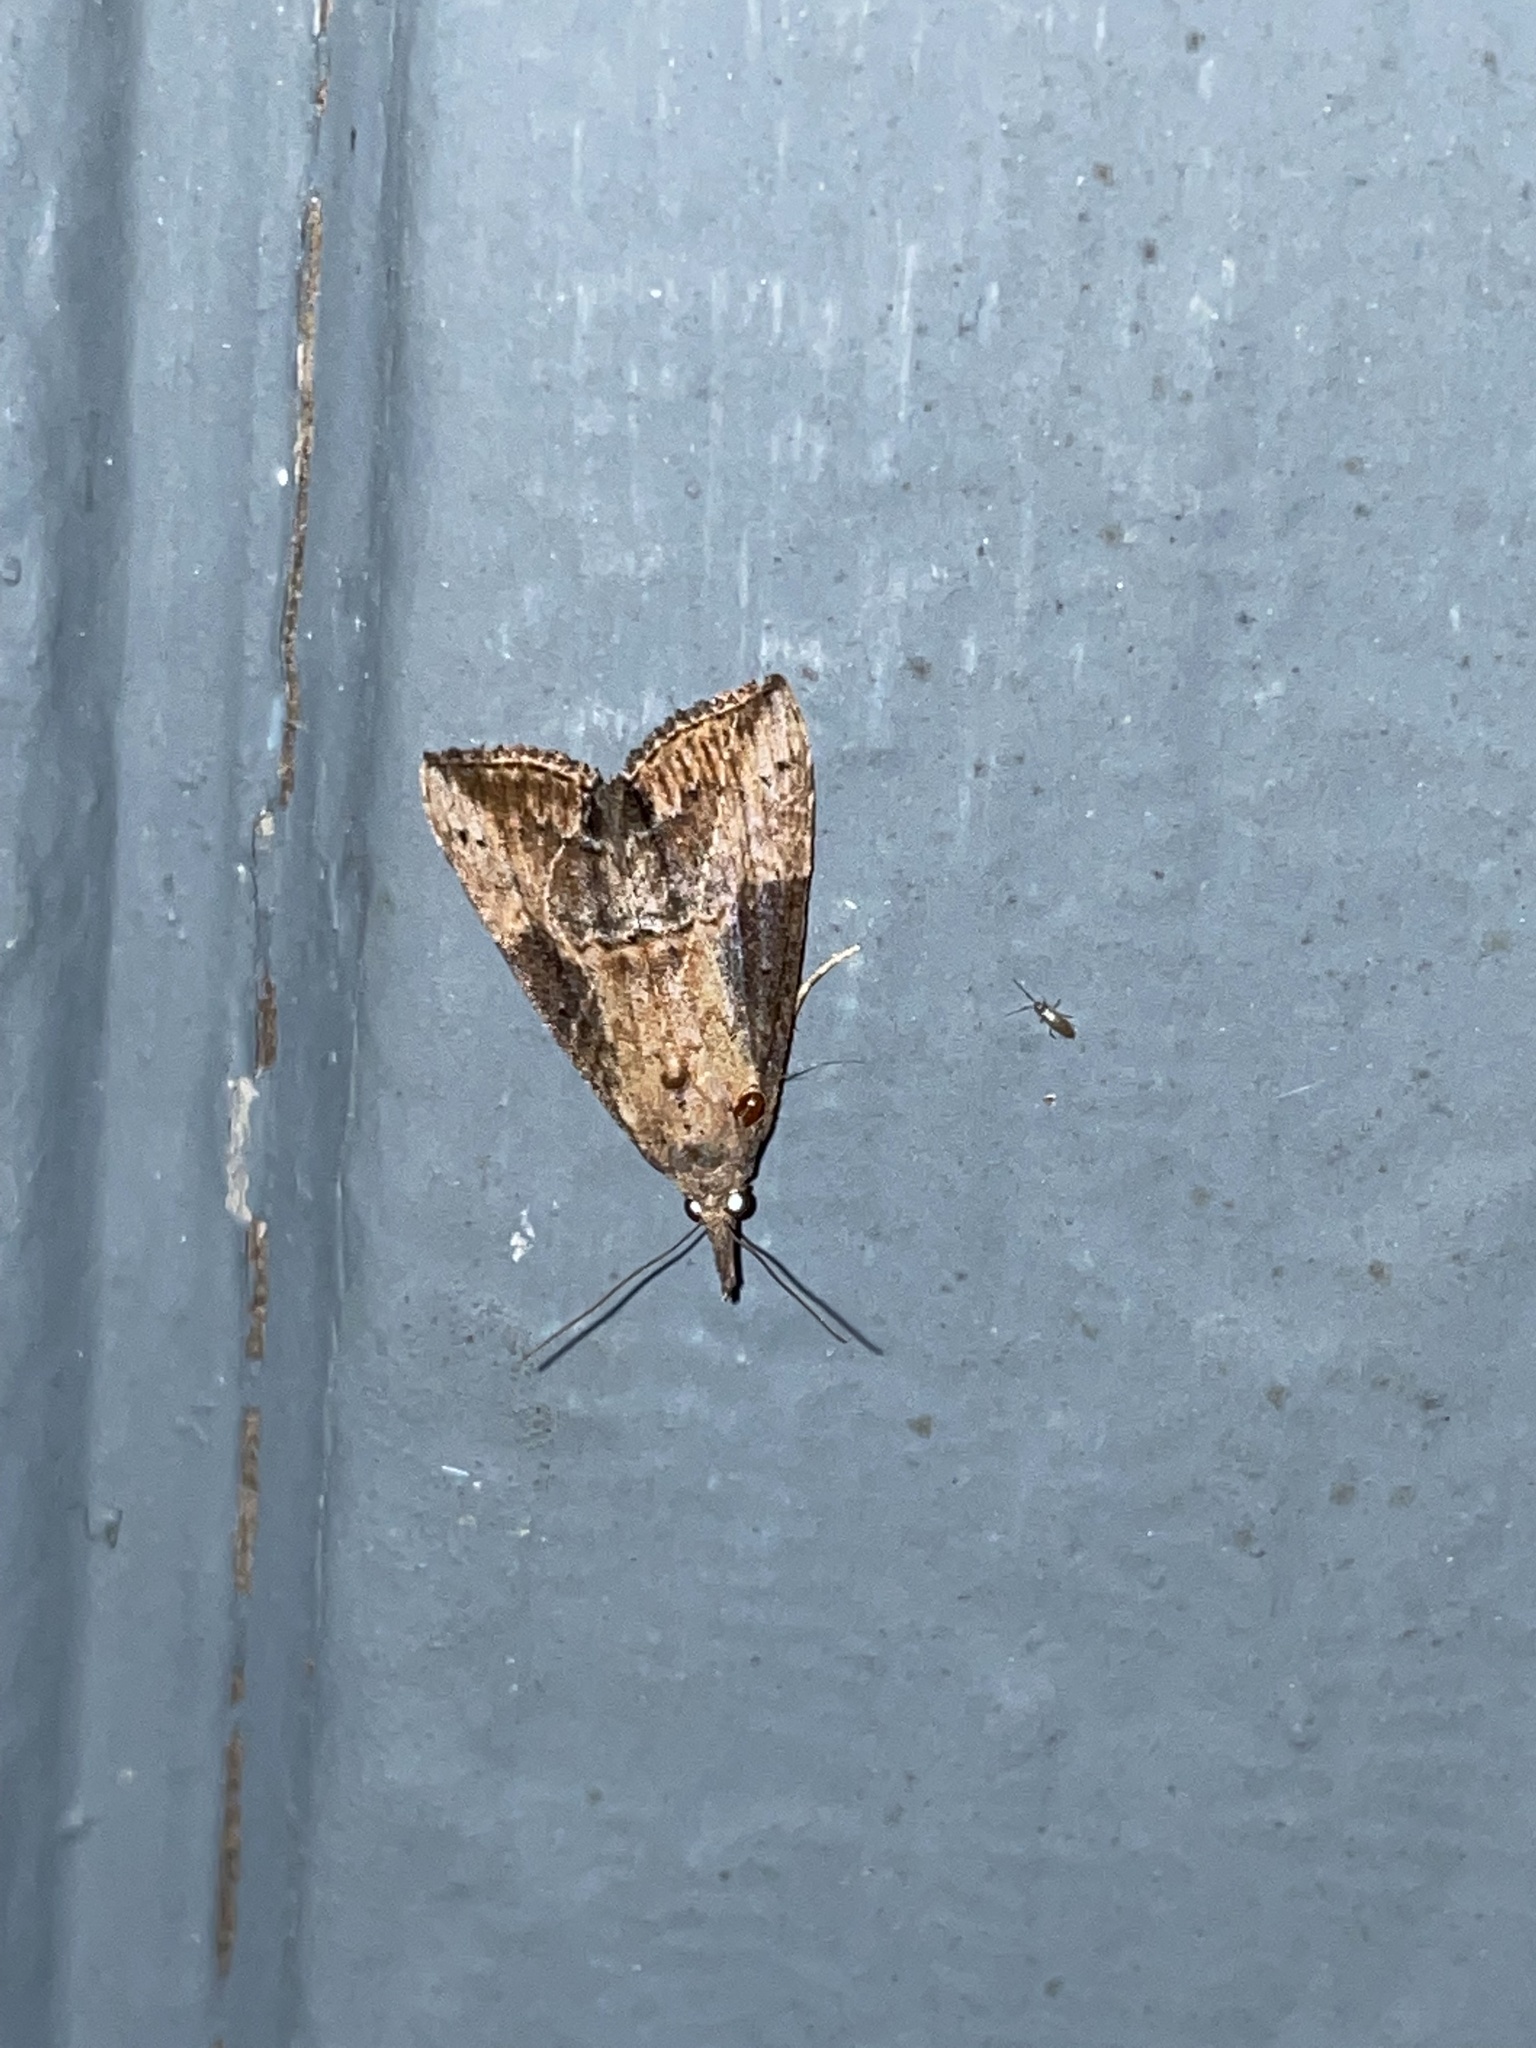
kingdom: Animalia
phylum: Arthropoda
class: Insecta
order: Lepidoptera
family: Erebidae
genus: Hypena
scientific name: Hypena scabra
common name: Green cloverworm
